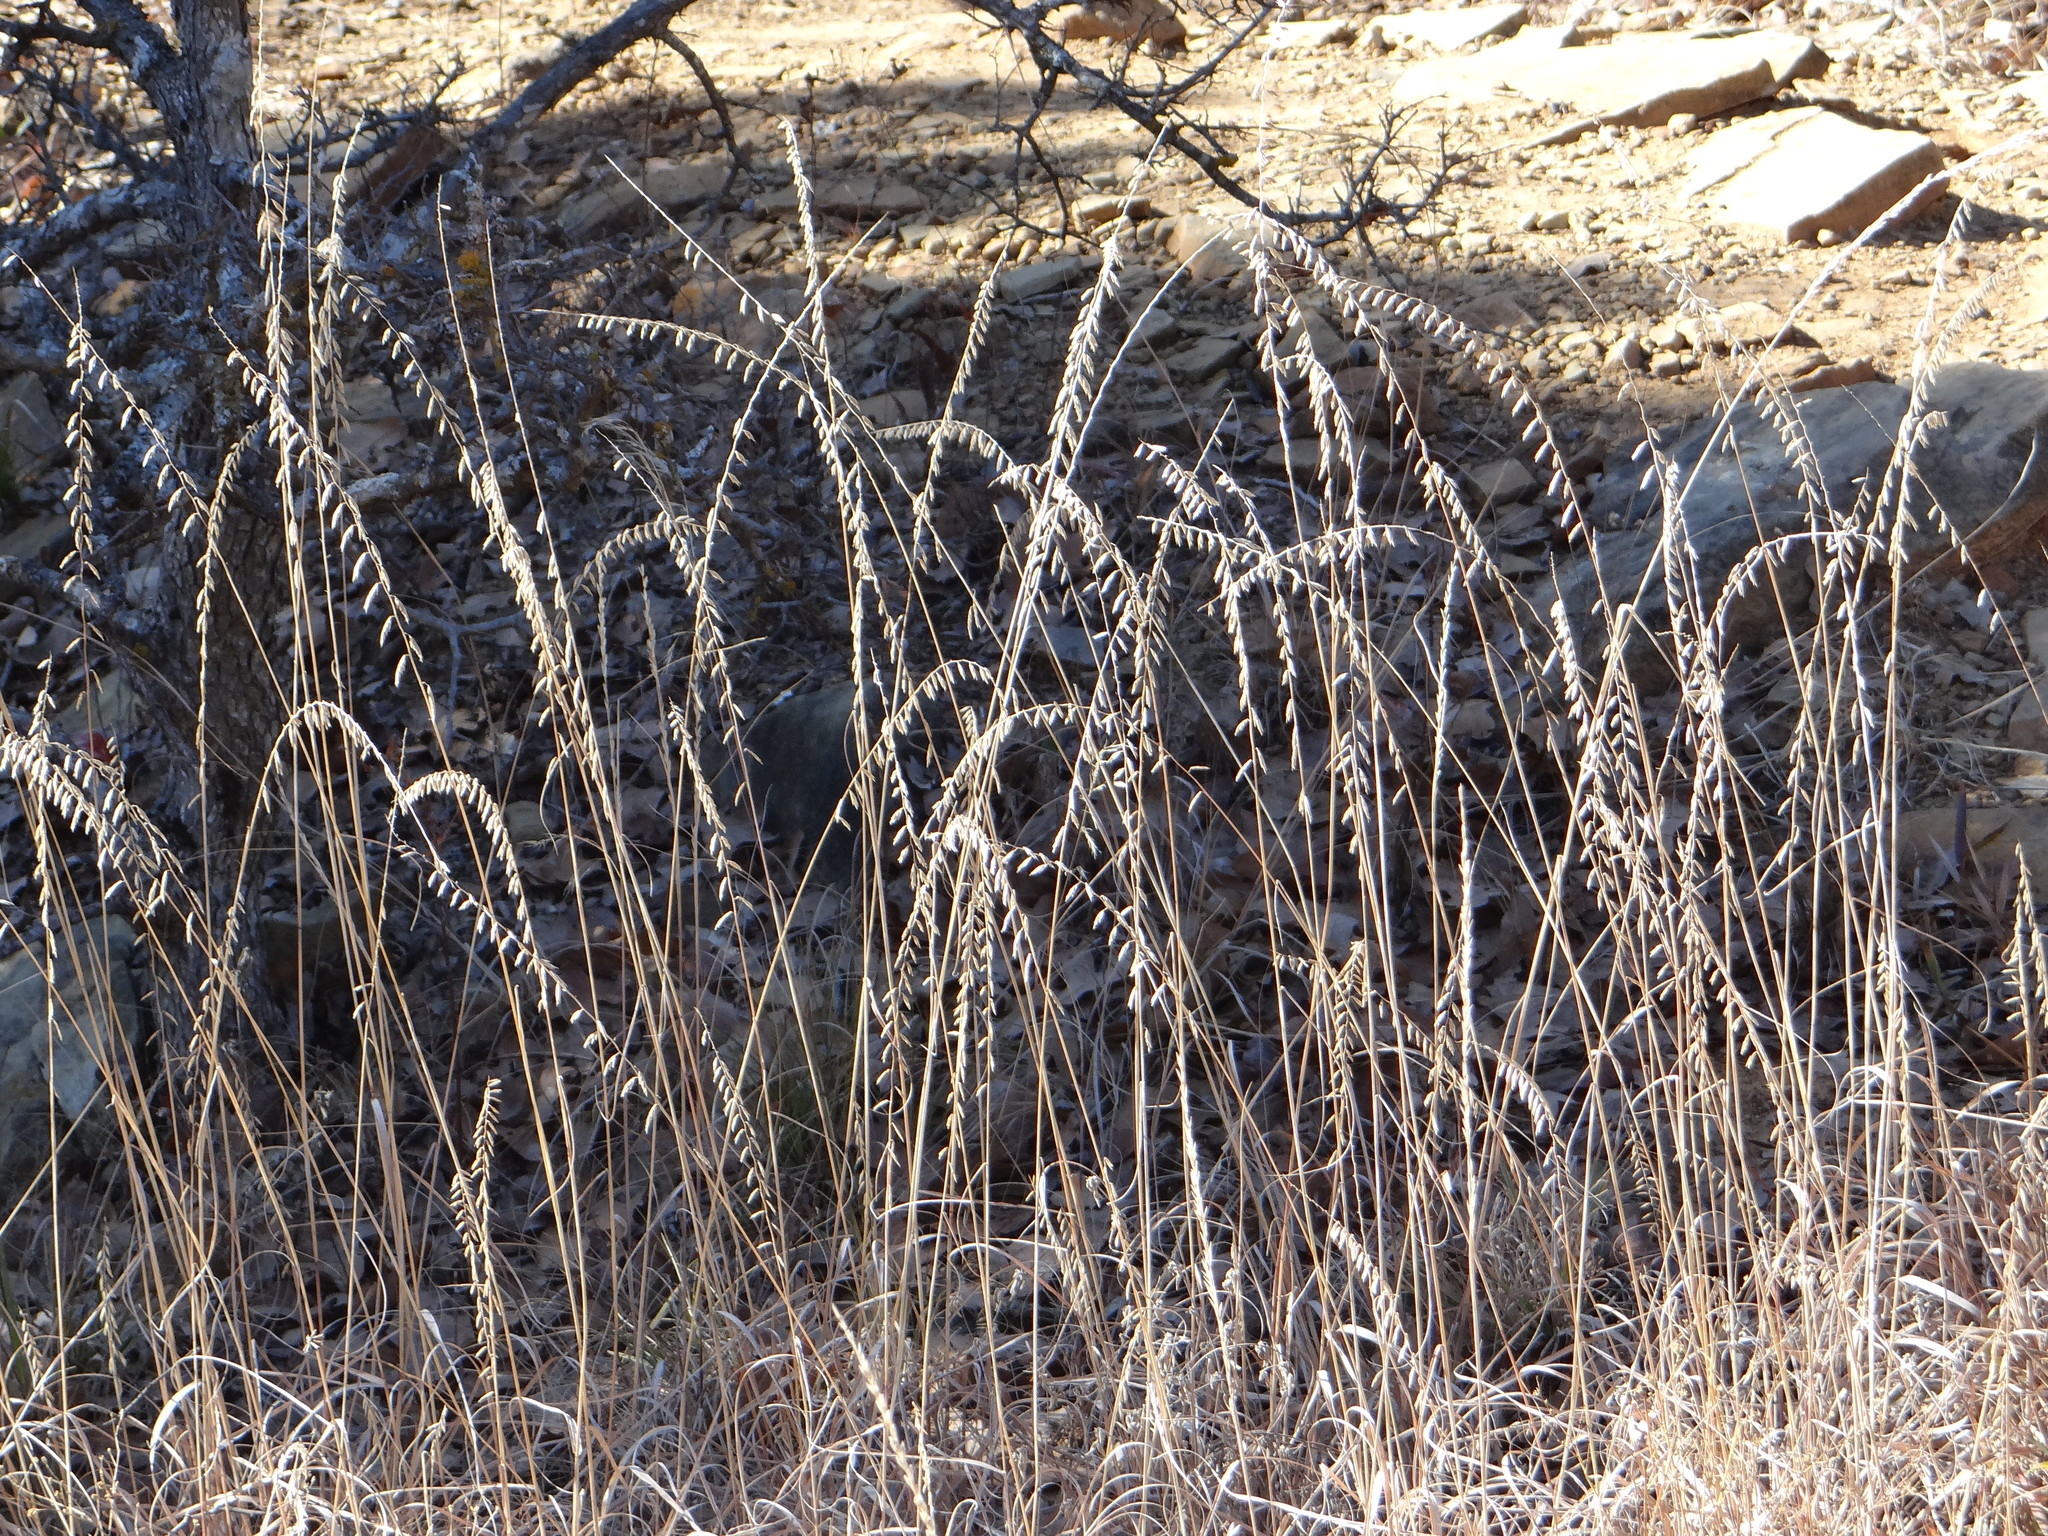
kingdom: Plantae
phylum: Tracheophyta
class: Liliopsida
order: Poales
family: Poaceae
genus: Bouteloua
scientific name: Bouteloua curtipendula
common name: Side-oats grama
